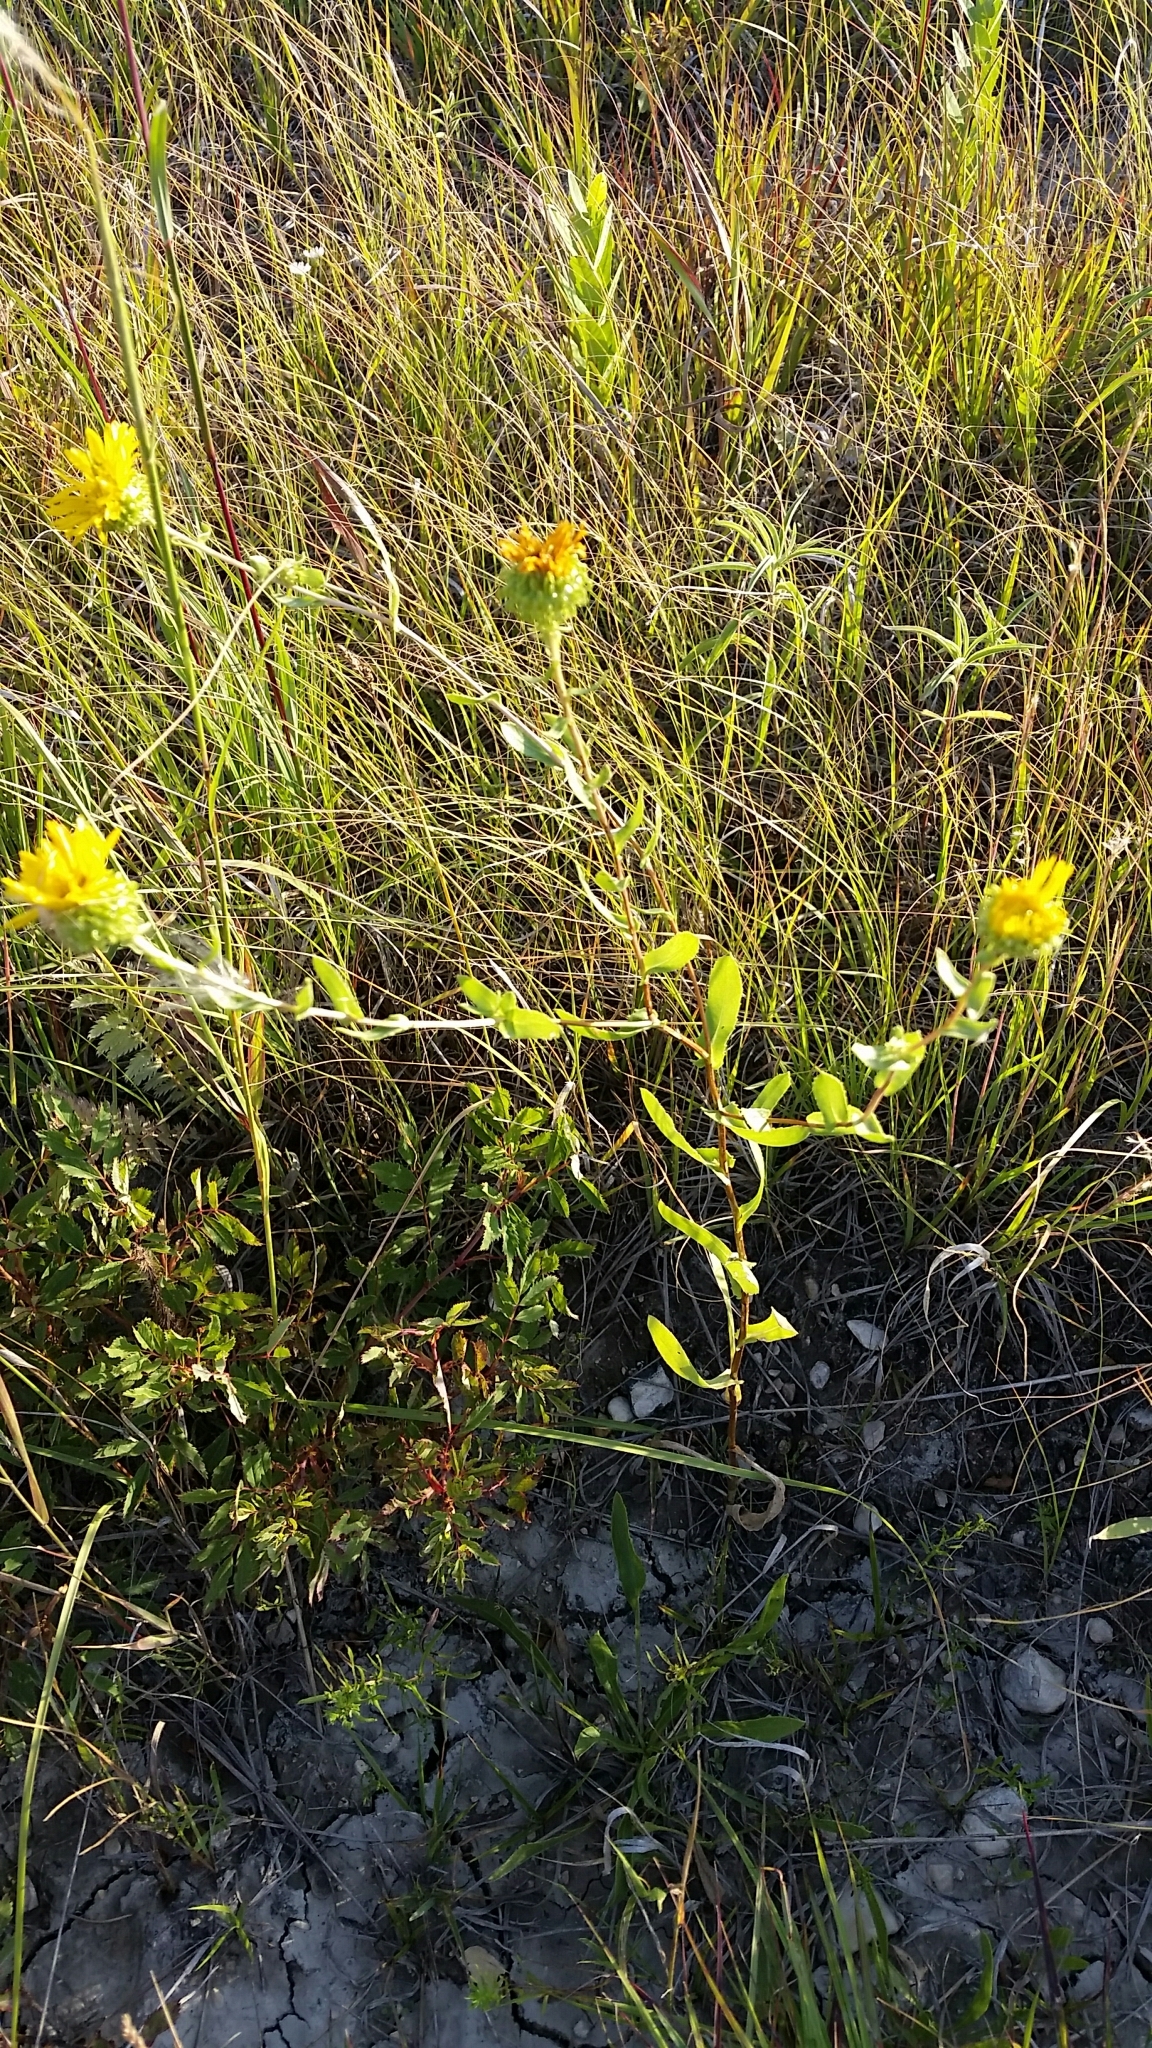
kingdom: Plantae
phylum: Tracheophyta
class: Magnoliopsida
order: Asterales
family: Asteraceae
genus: Grindelia
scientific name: Grindelia squarrosa
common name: Curly-cup gumweed
